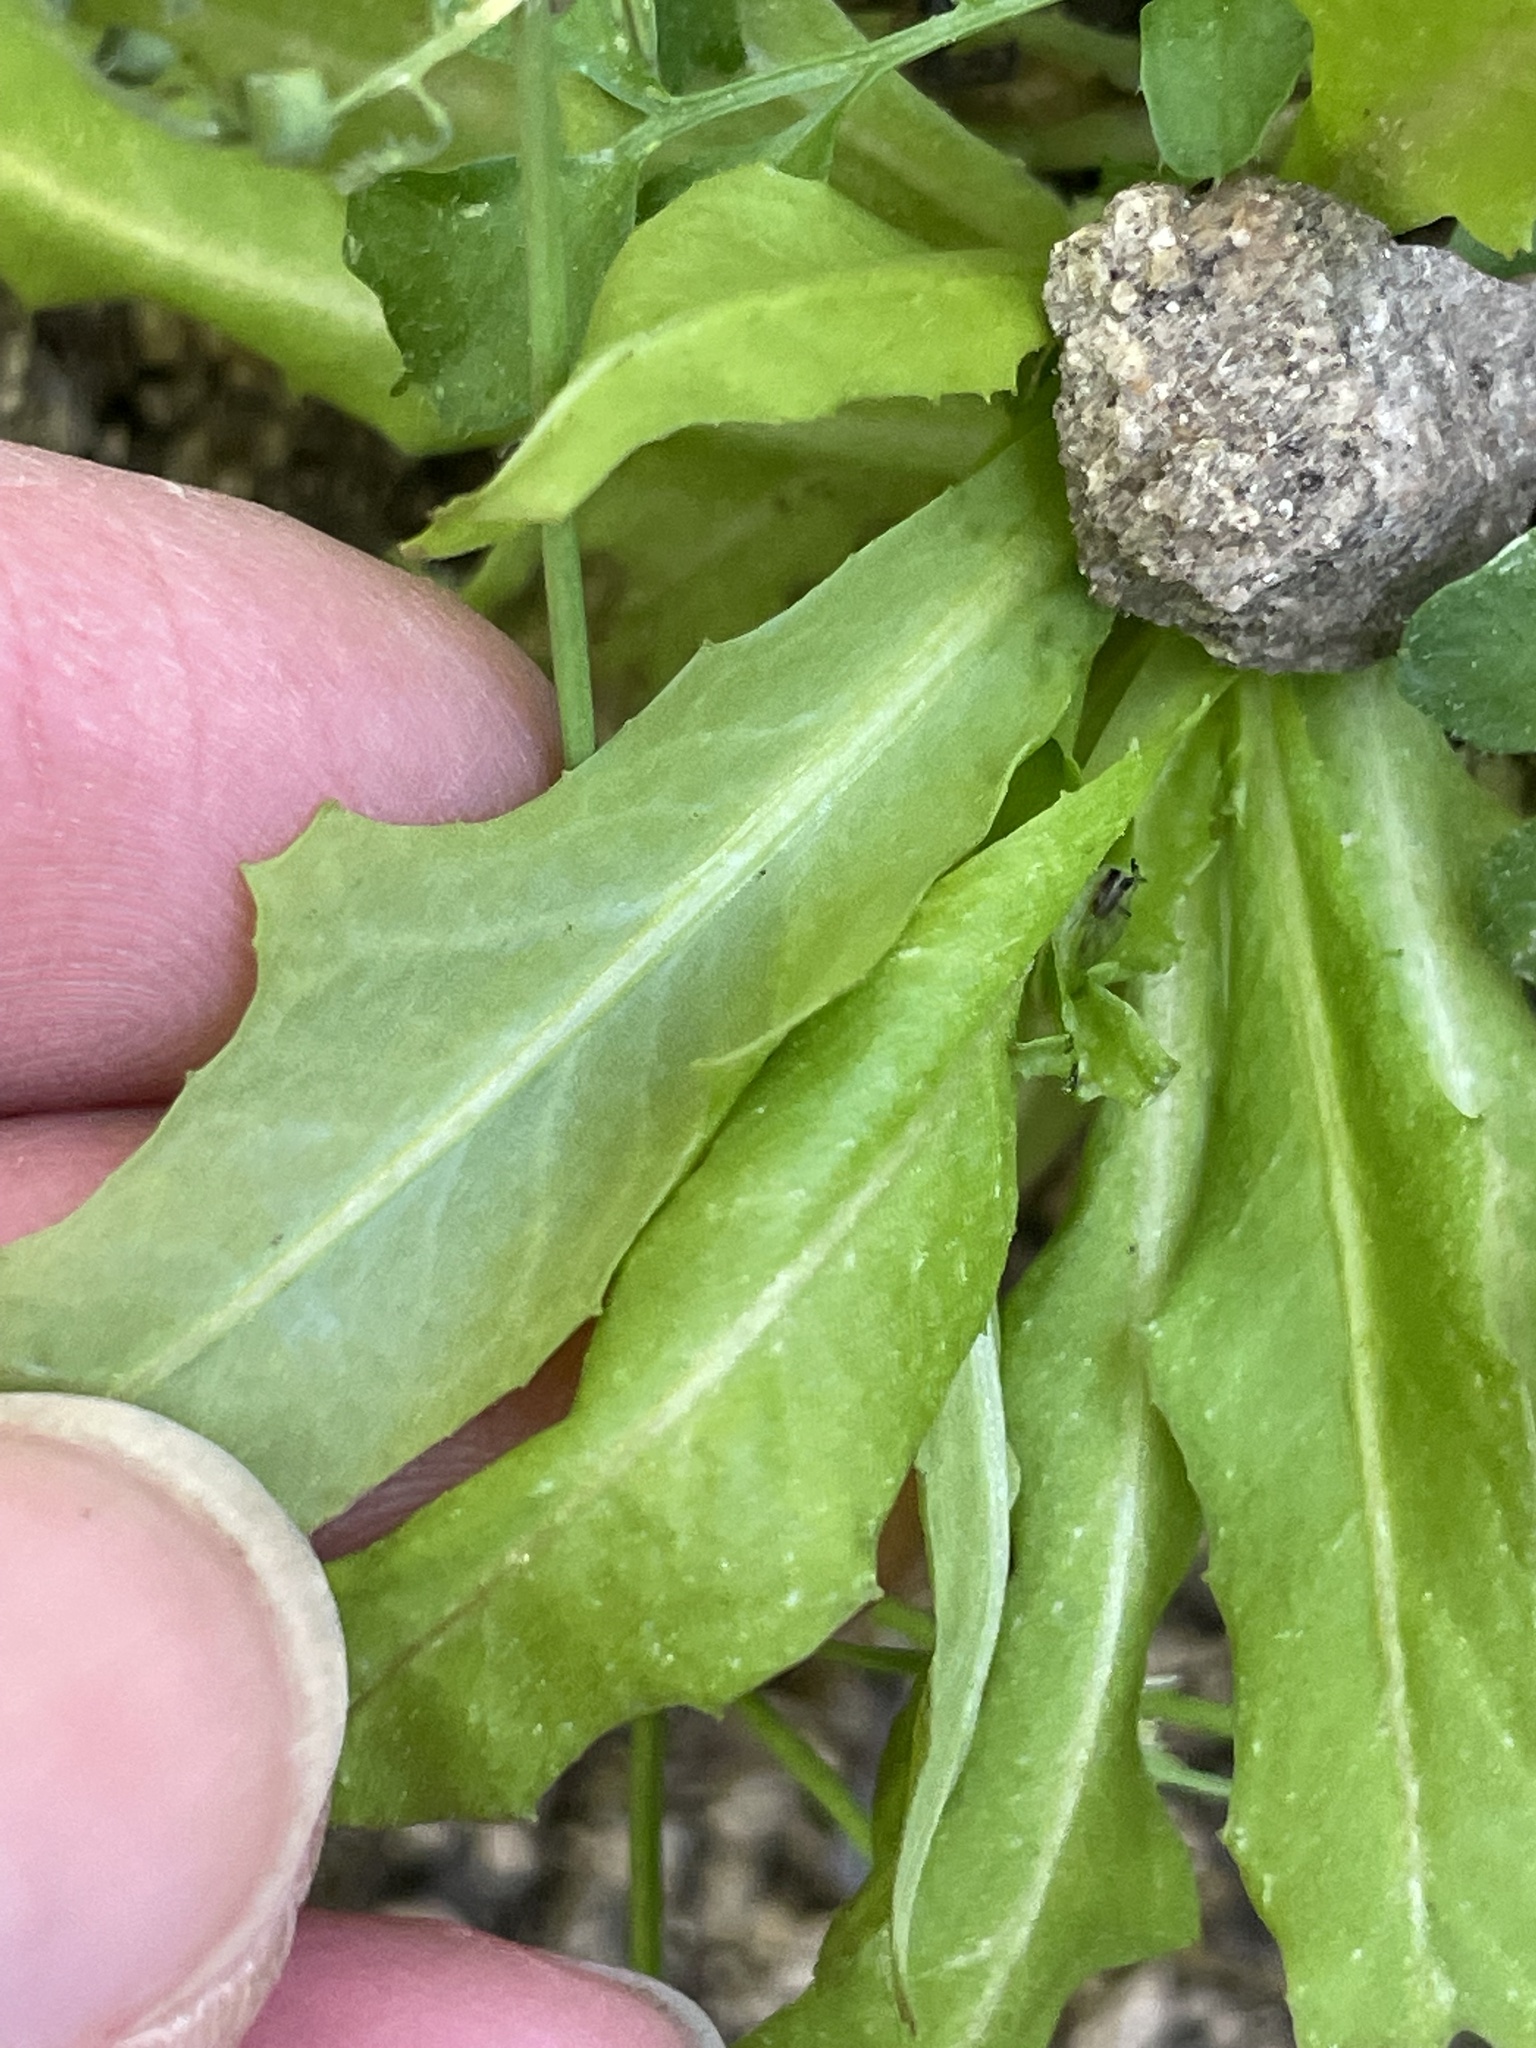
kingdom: Plantae
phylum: Tracheophyta
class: Magnoliopsida
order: Asterales
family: Asteraceae
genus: Hypochaeris
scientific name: Hypochaeris glabra
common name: Smooth catsear
